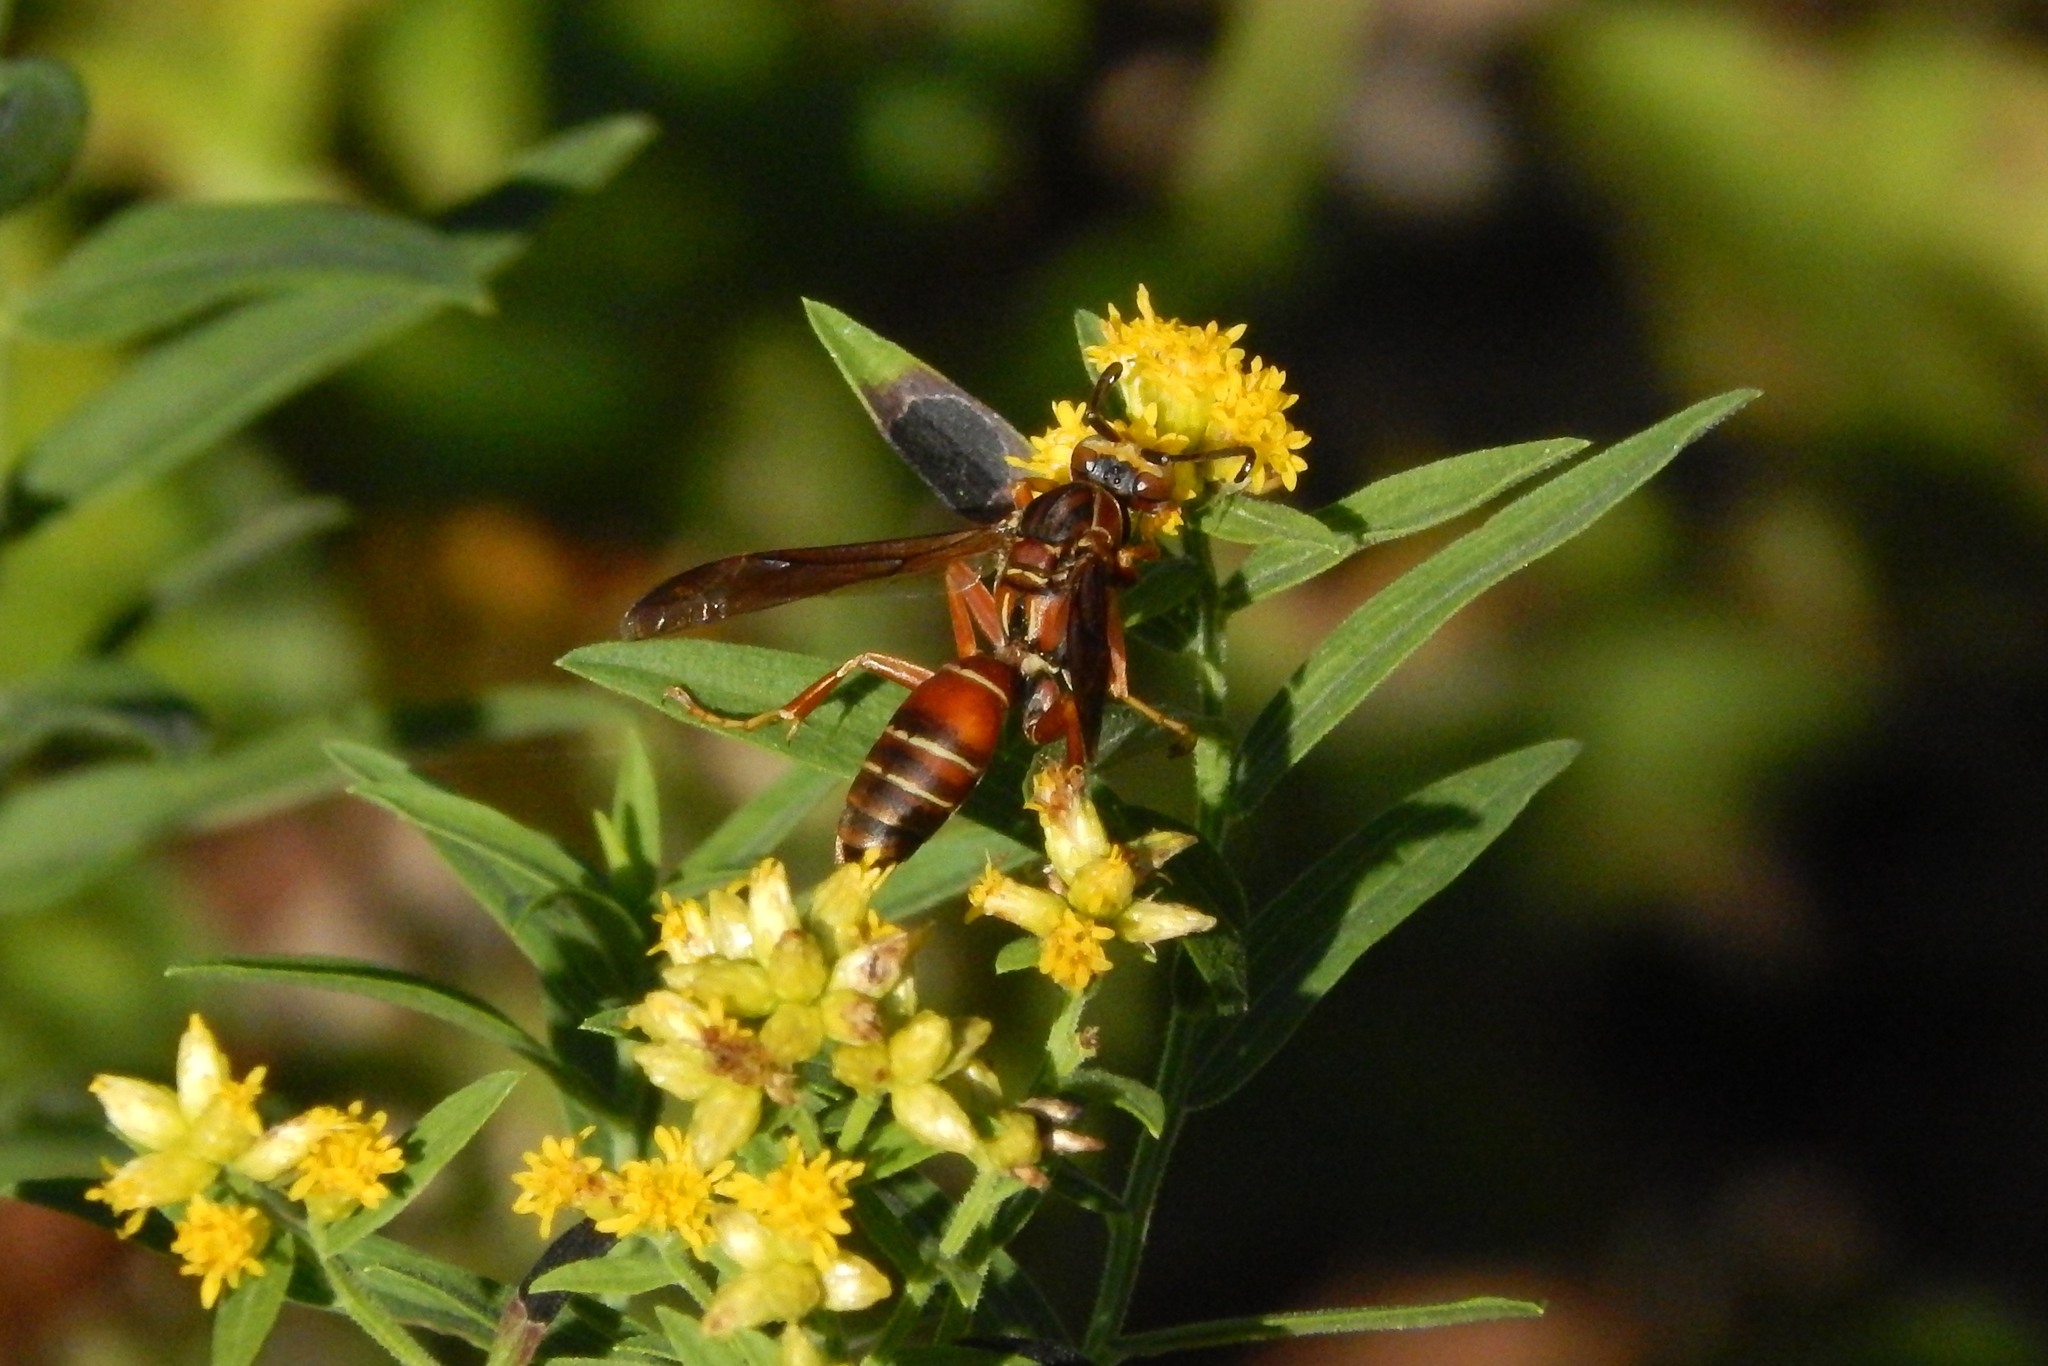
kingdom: Animalia
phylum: Arthropoda
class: Insecta
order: Hymenoptera
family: Eumenidae
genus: Polistes
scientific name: Polistes fuscatus
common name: Dark paper wasp
